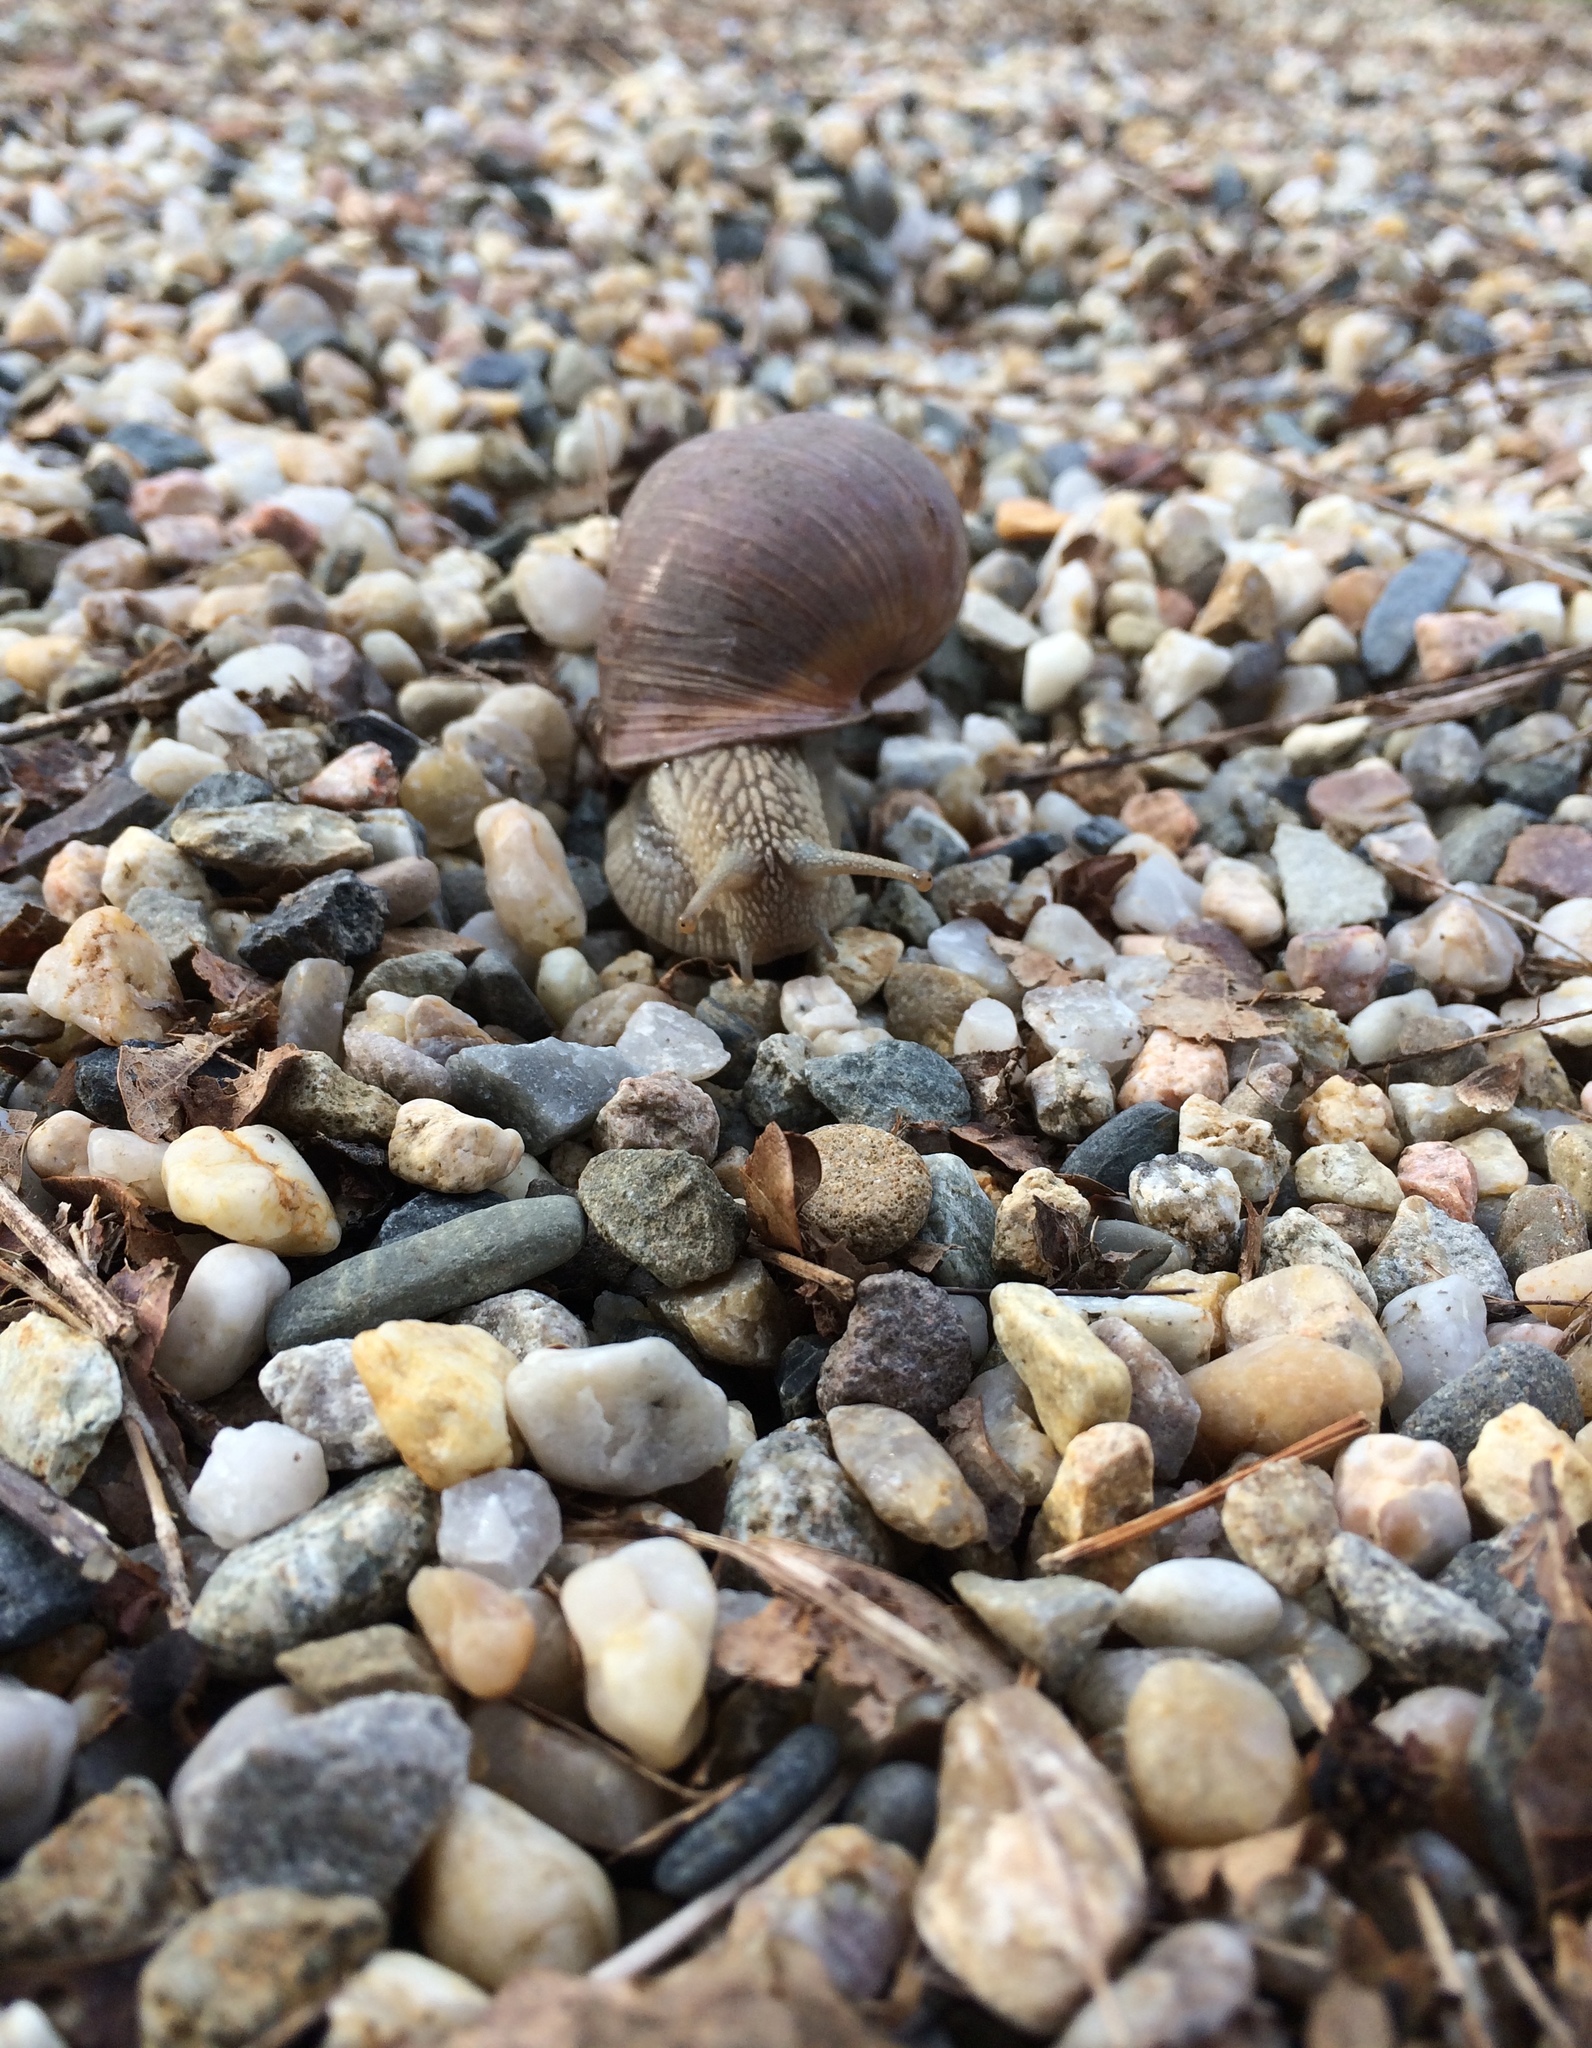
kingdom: Animalia
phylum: Mollusca
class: Gastropoda
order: Stylommatophora
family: Helicidae
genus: Helix
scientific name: Helix pomatia
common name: Roman snail
